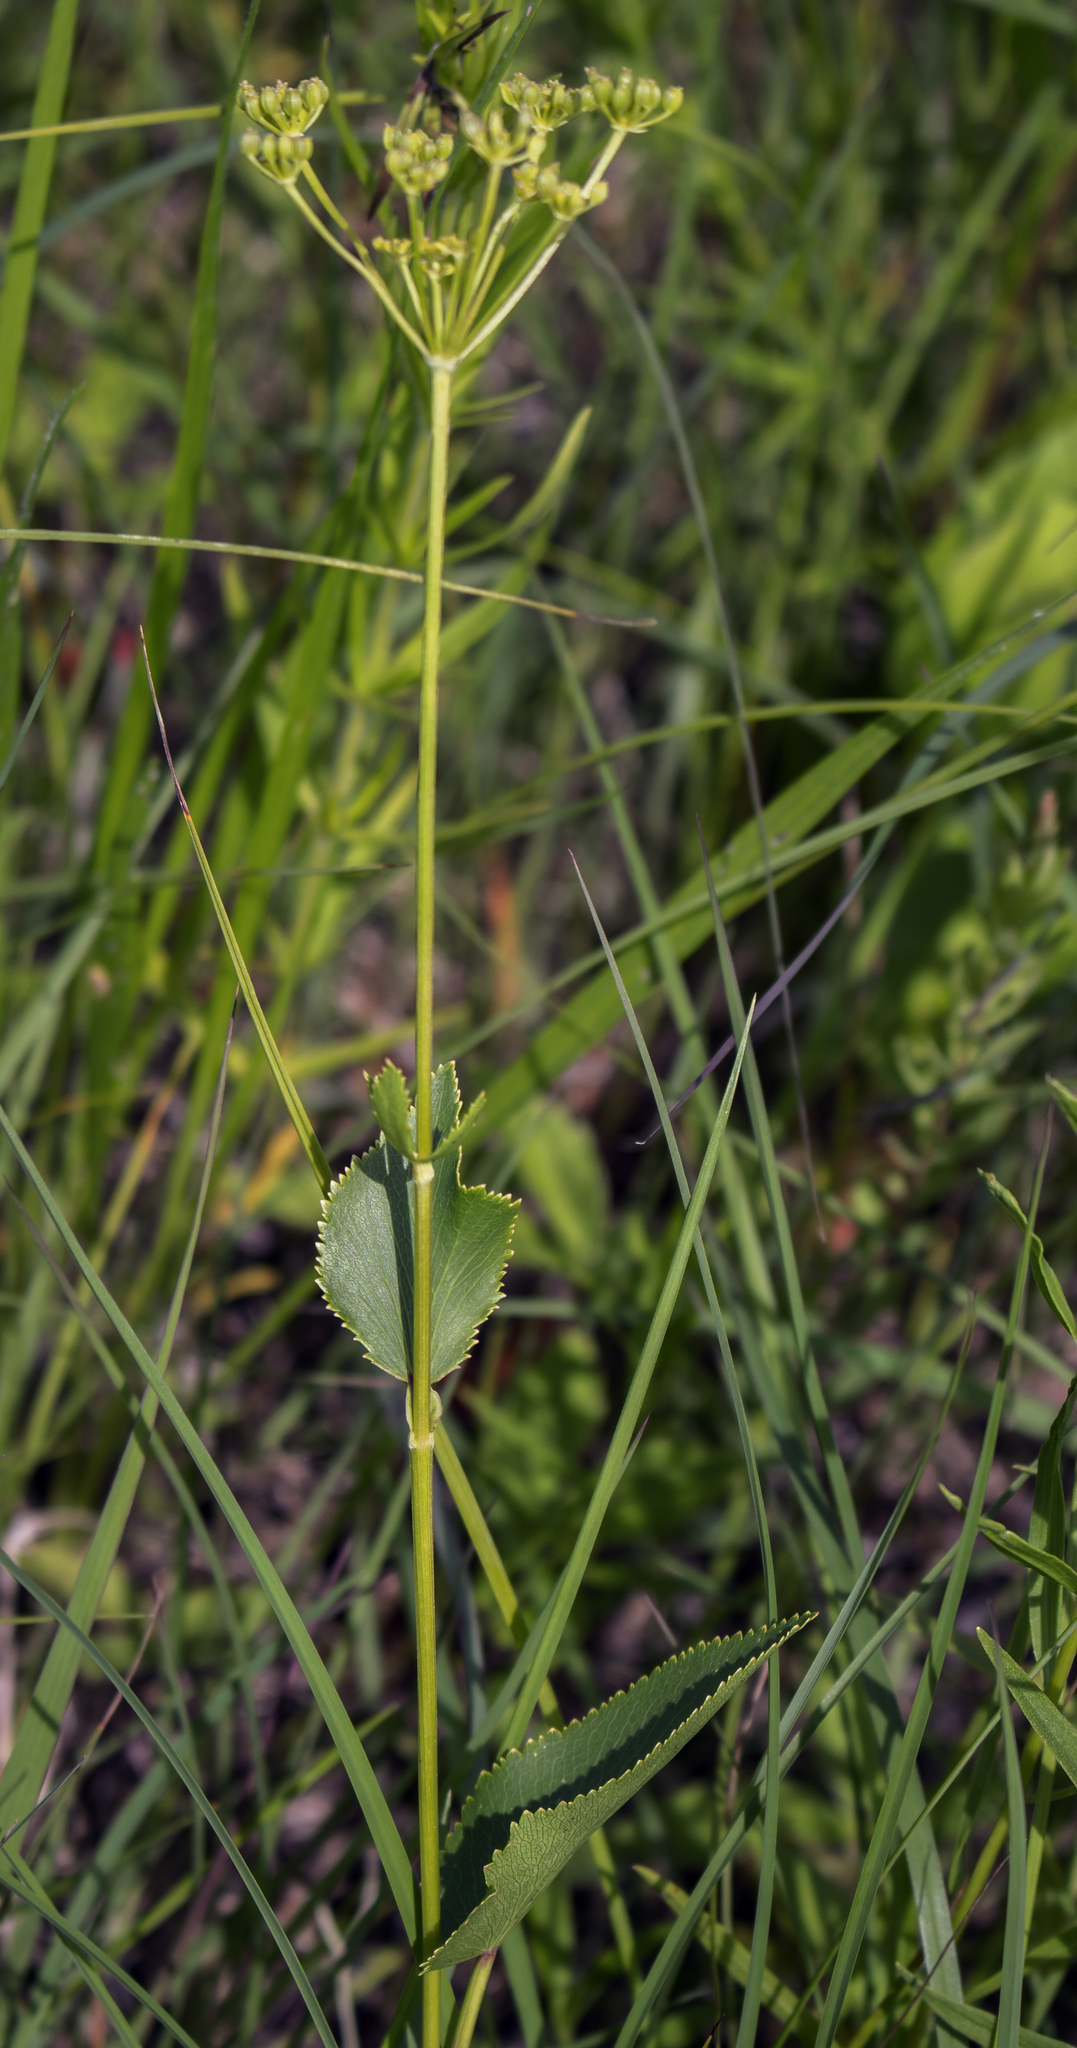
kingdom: Plantae
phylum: Tracheophyta
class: Magnoliopsida
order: Apiales
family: Apiaceae
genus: Zizia
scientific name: Zizia aptera
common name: Heart-leaved alexanders
